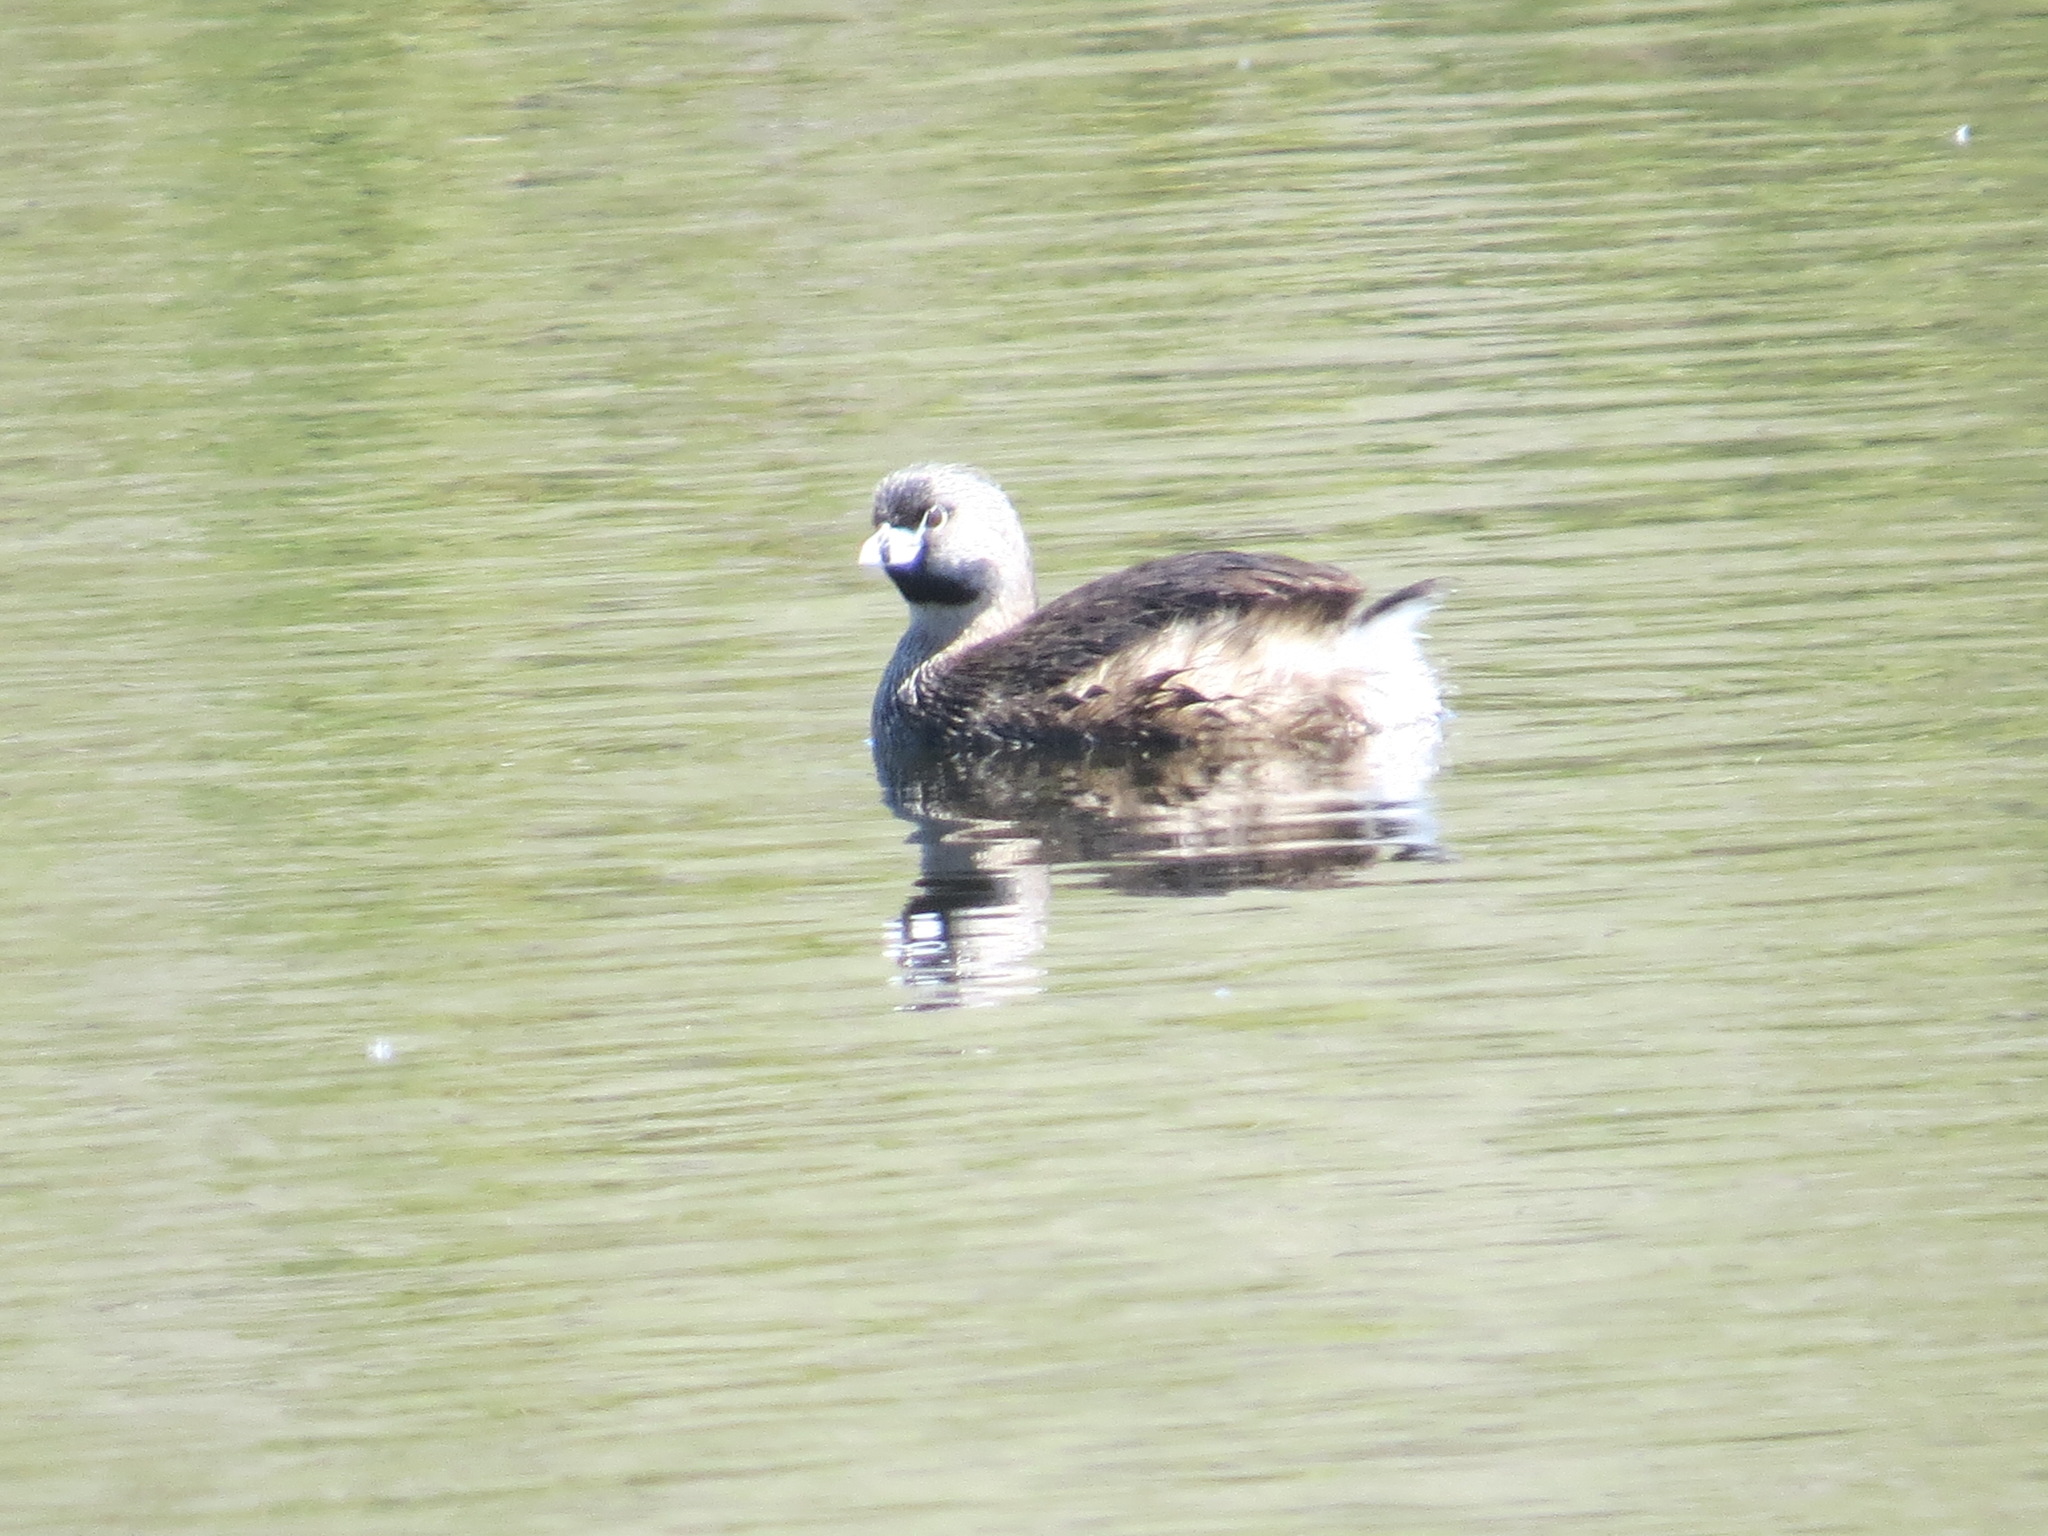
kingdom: Animalia
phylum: Chordata
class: Aves
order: Podicipediformes
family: Podicipedidae
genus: Podilymbus
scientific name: Podilymbus podiceps
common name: Pied-billed grebe
